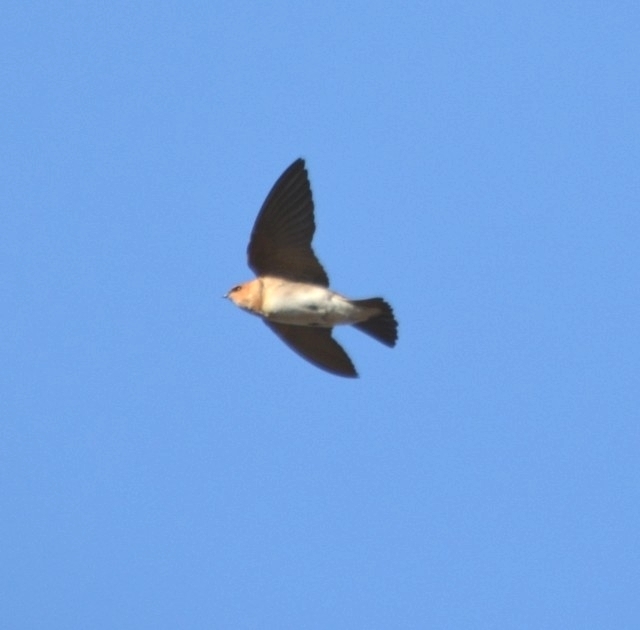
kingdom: Animalia
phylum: Chordata
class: Aves
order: Passeriformes
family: Hirundinidae
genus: Alopochelidon
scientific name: Alopochelidon fucata
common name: Tawny-headed swallow
